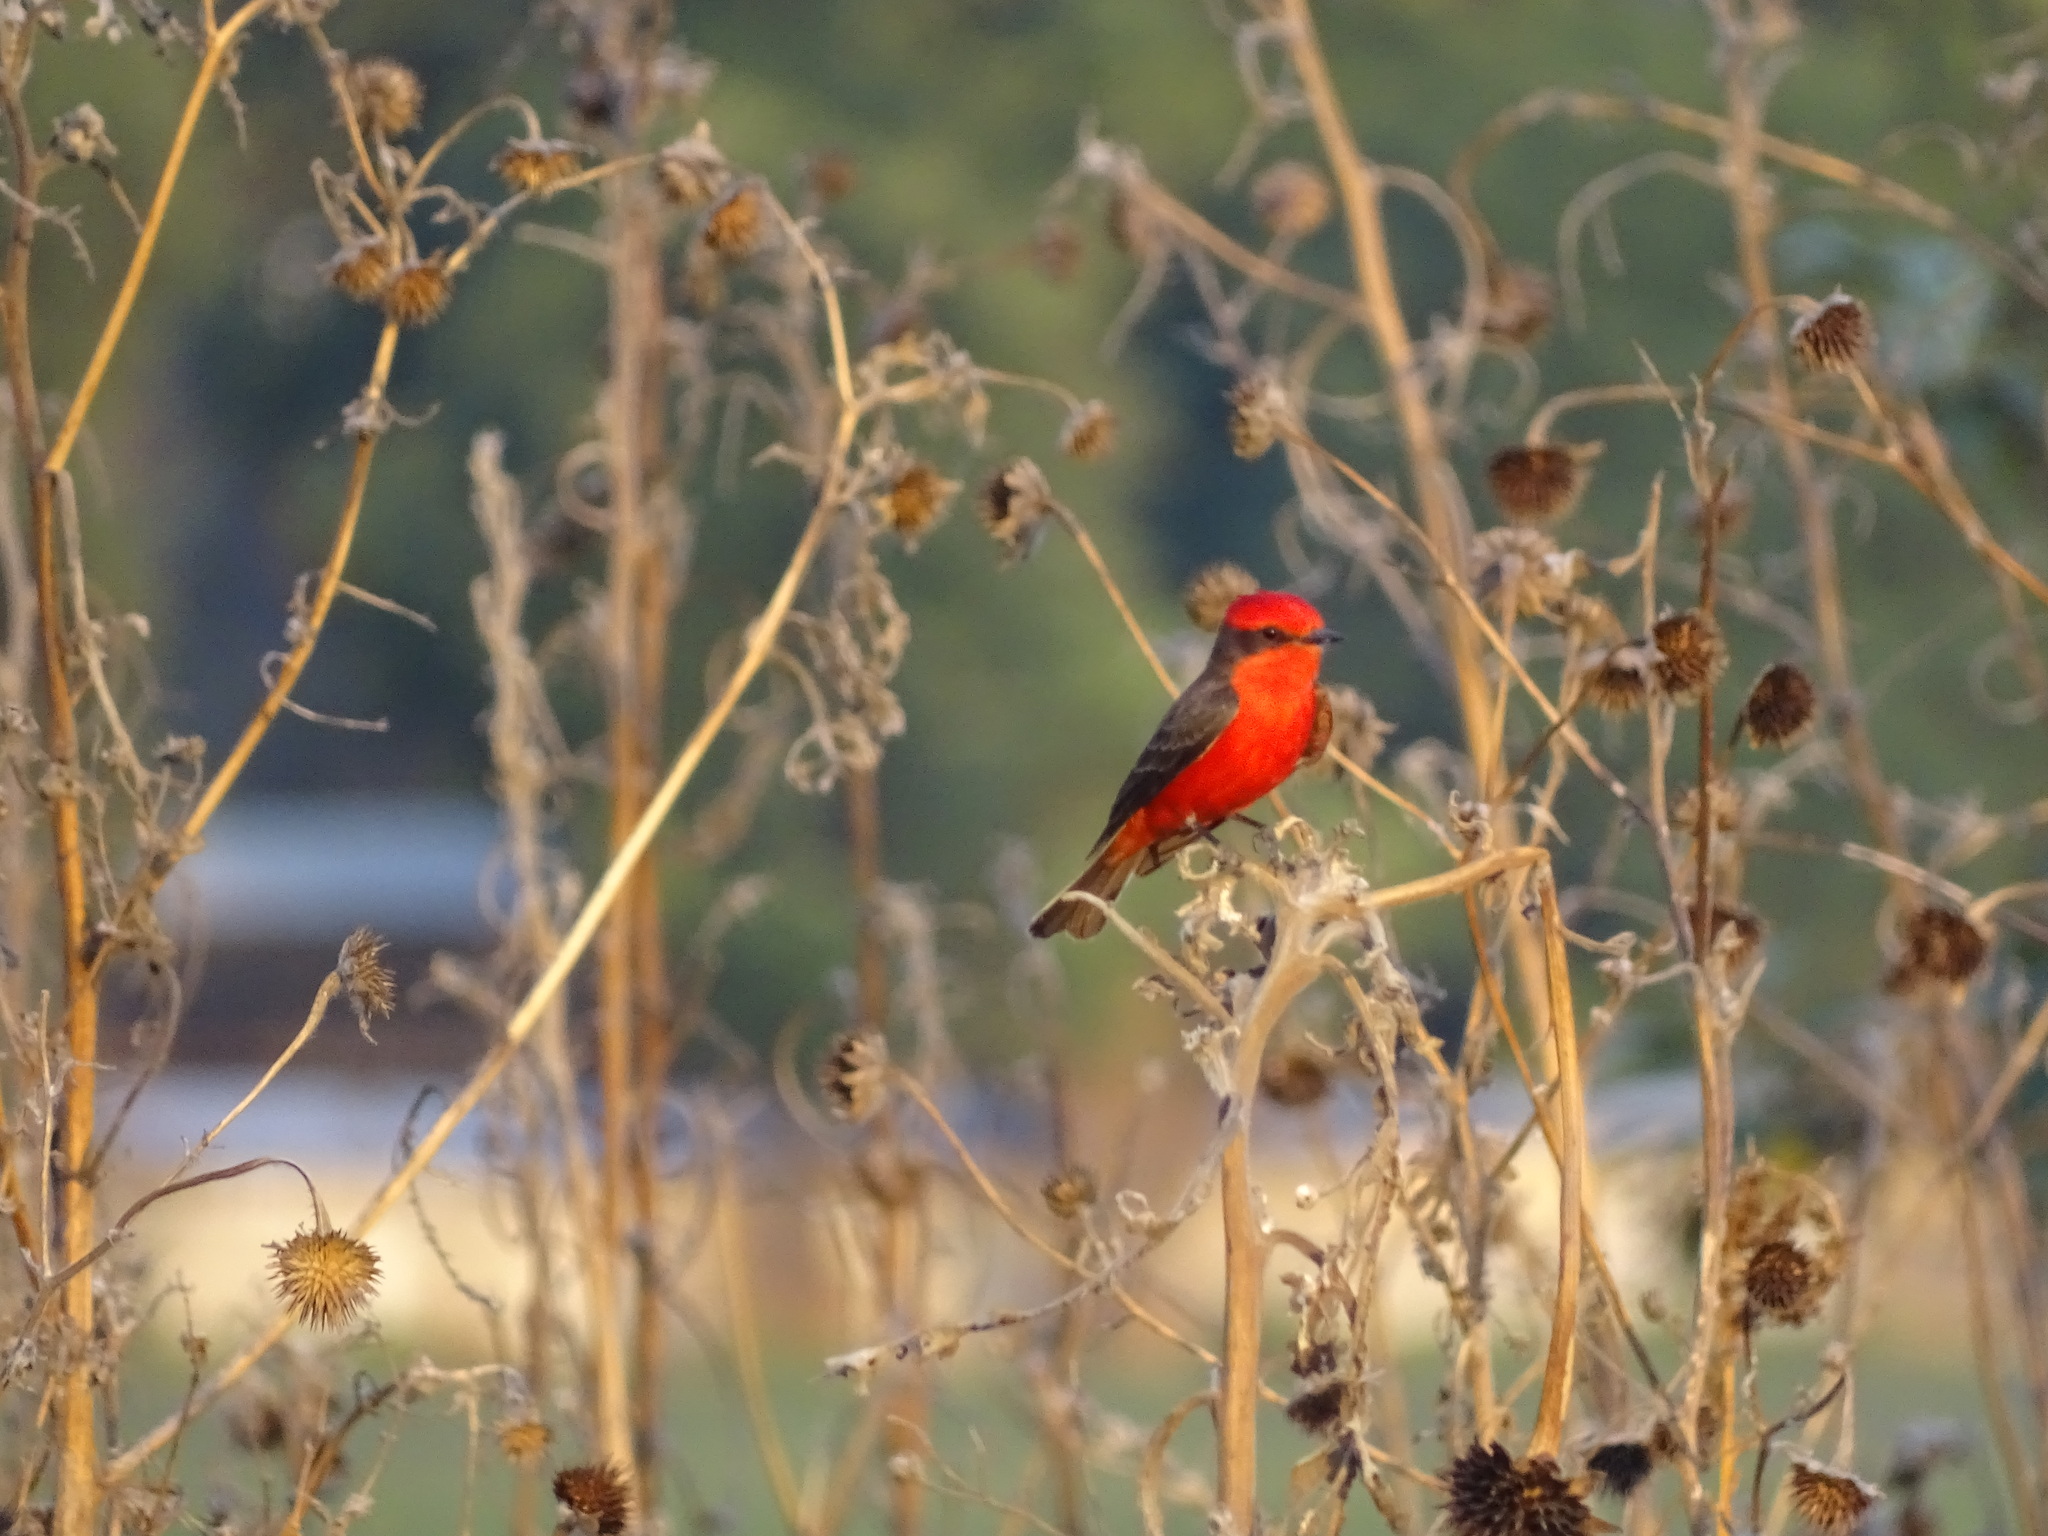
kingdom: Animalia
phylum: Chordata
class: Aves
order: Passeriformes
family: Tyrannidae
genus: Pyrocephalus
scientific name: Pyrocephalus rubinus
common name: Vermilion flycatcher
